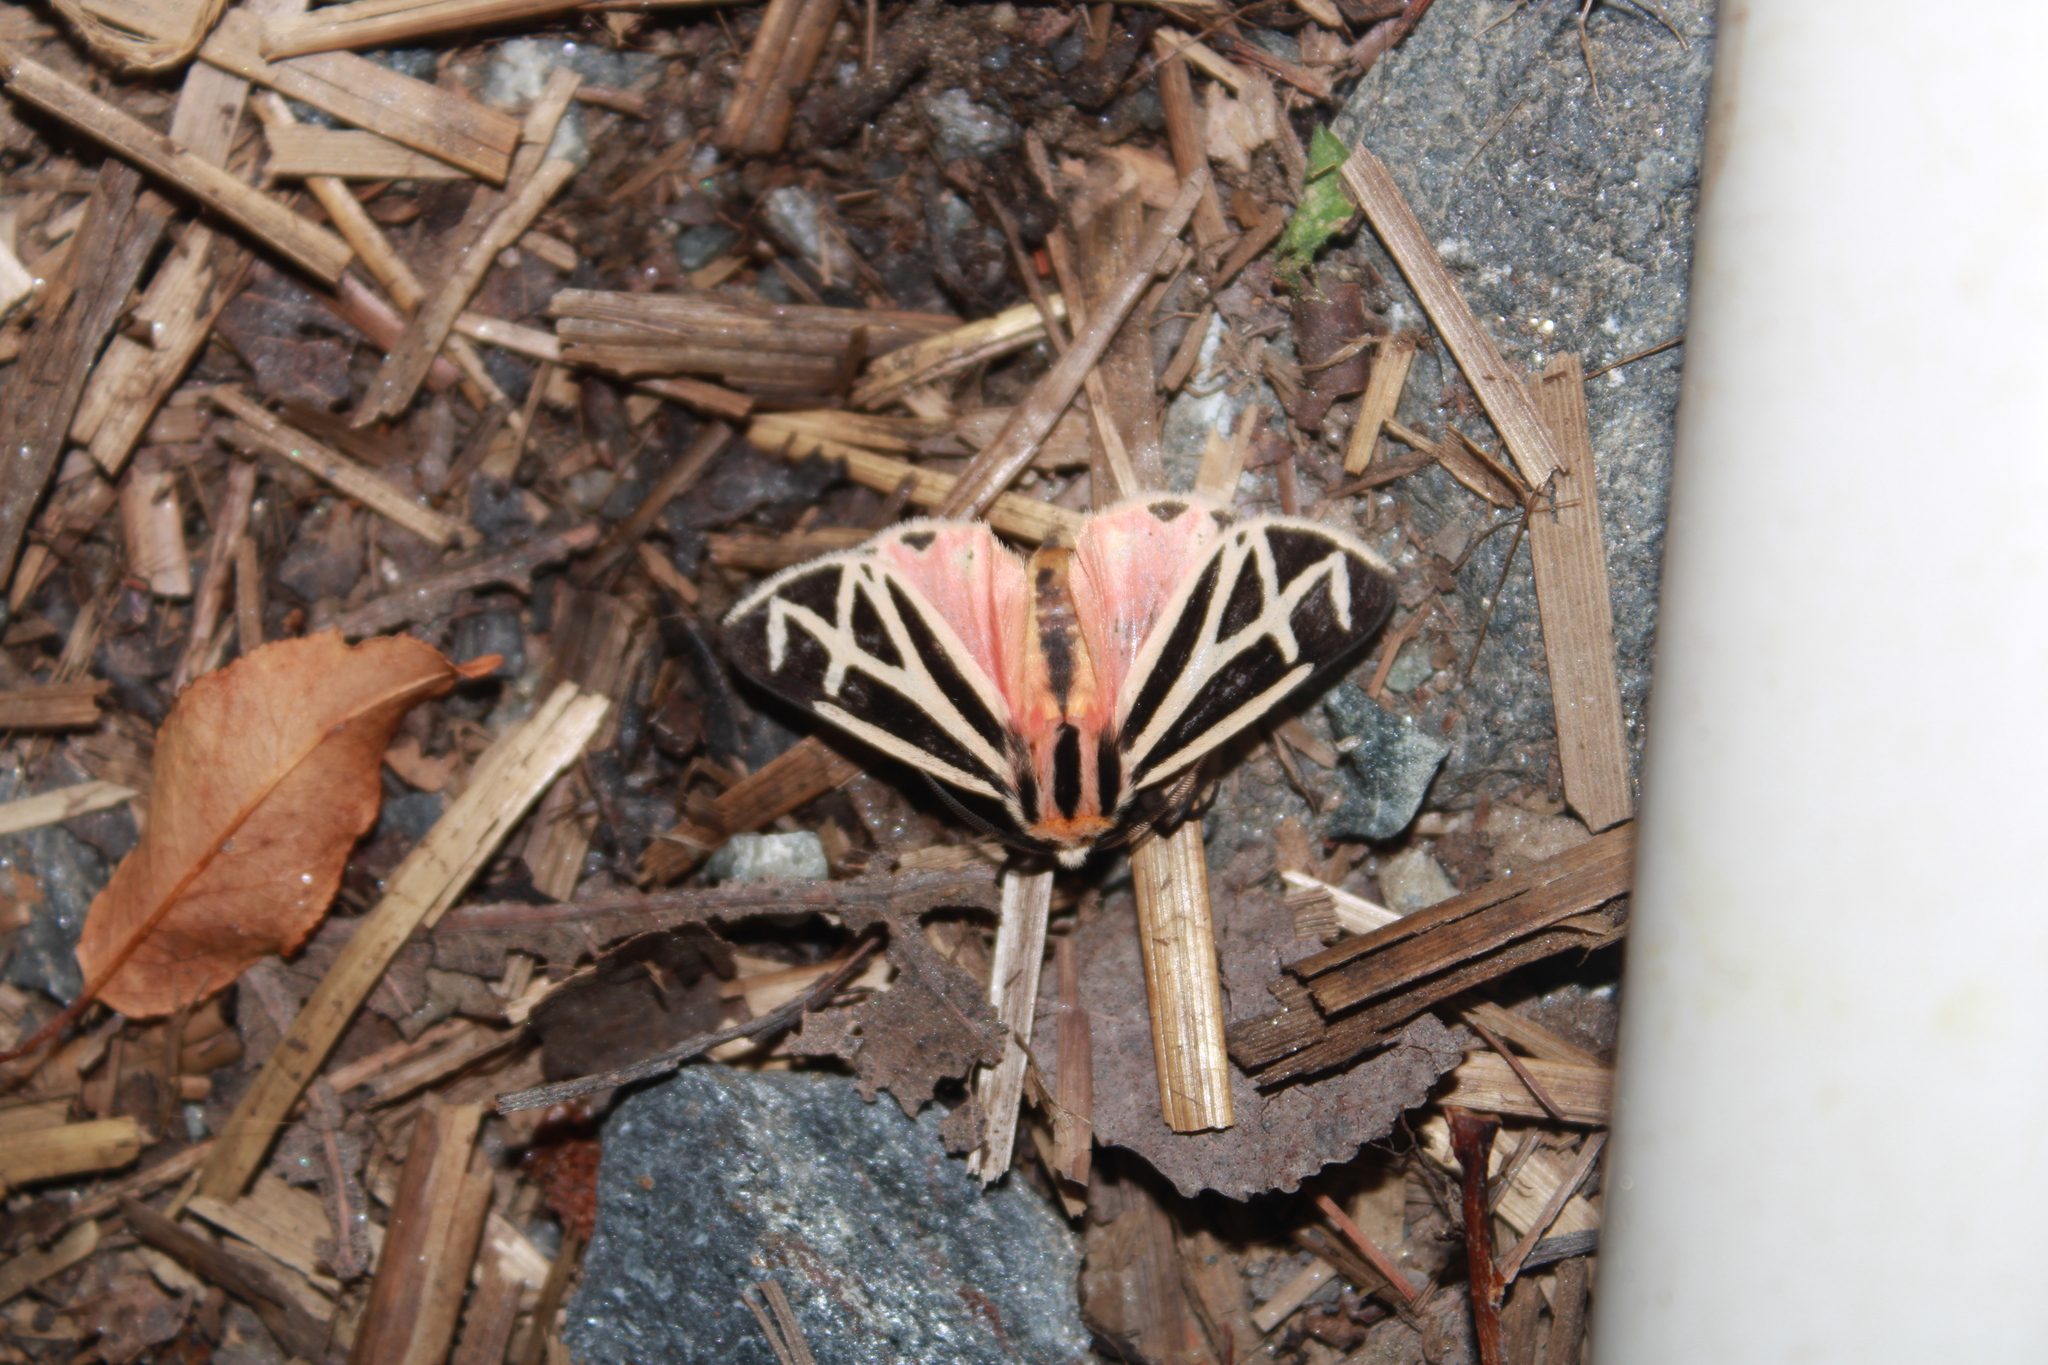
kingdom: Animalia
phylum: Arthropoda
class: Insecta
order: Lepidoptera
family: Erebidae
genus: Apantesis
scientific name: Apantesis phalerata
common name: Harnessed tiger moth
